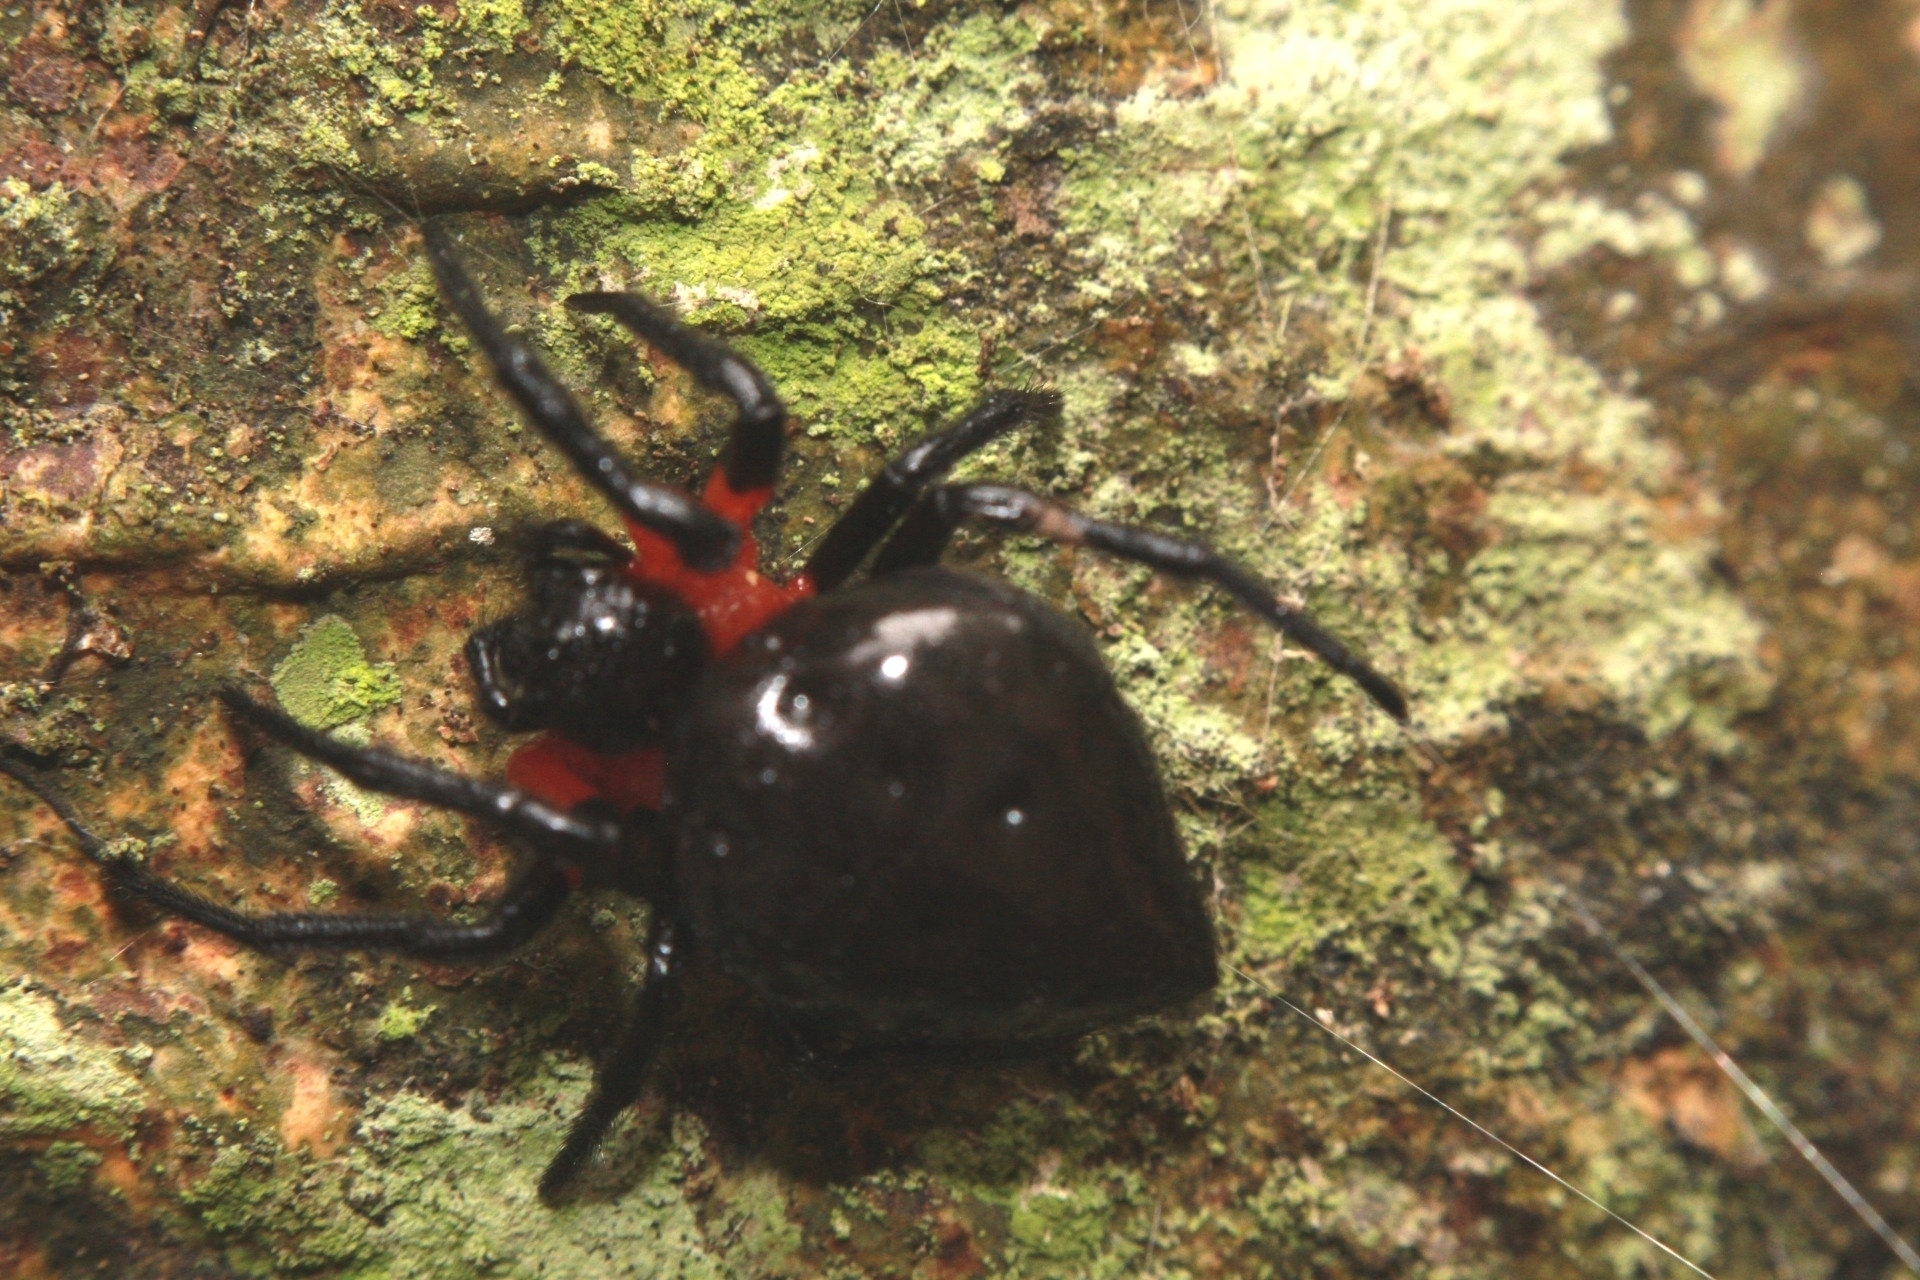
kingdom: Animalia
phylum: Arthropoda
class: Arachnida
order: Araneae
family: Araneidae
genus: Alpaida
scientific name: Alpaida acuta
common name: Orb weavers
